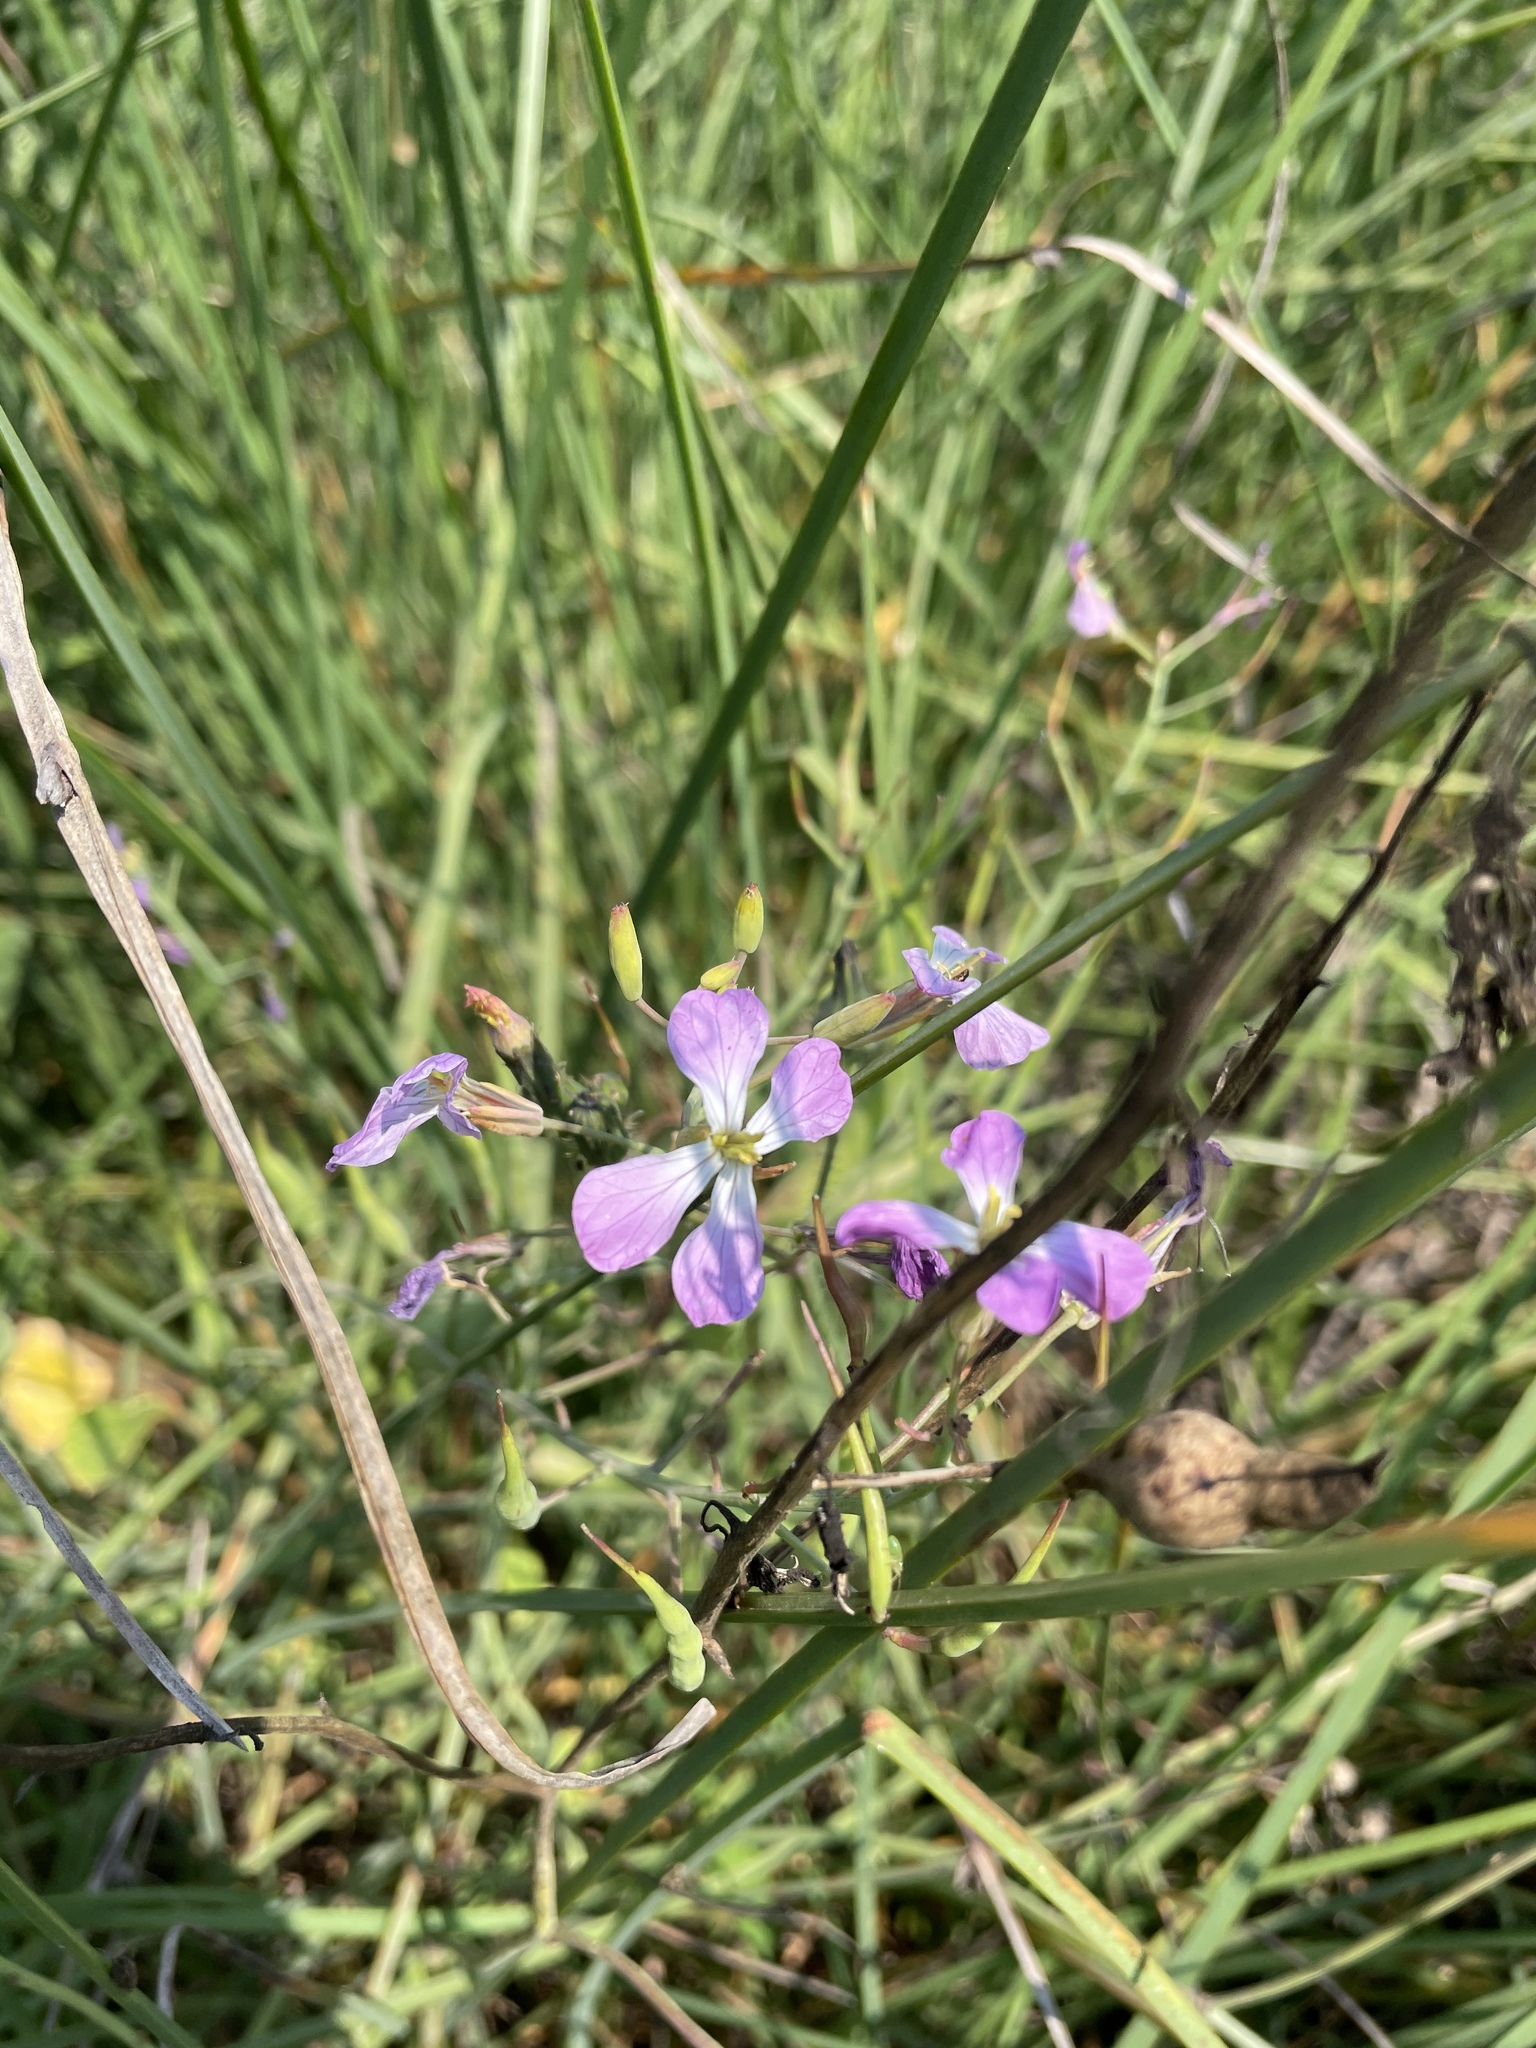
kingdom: Plantae
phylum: Tracheophyta
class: Magnoliopsida
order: Brassicales
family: Brassicaceae
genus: Raphanus
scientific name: Raphanus sativus
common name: Cultivated radish
